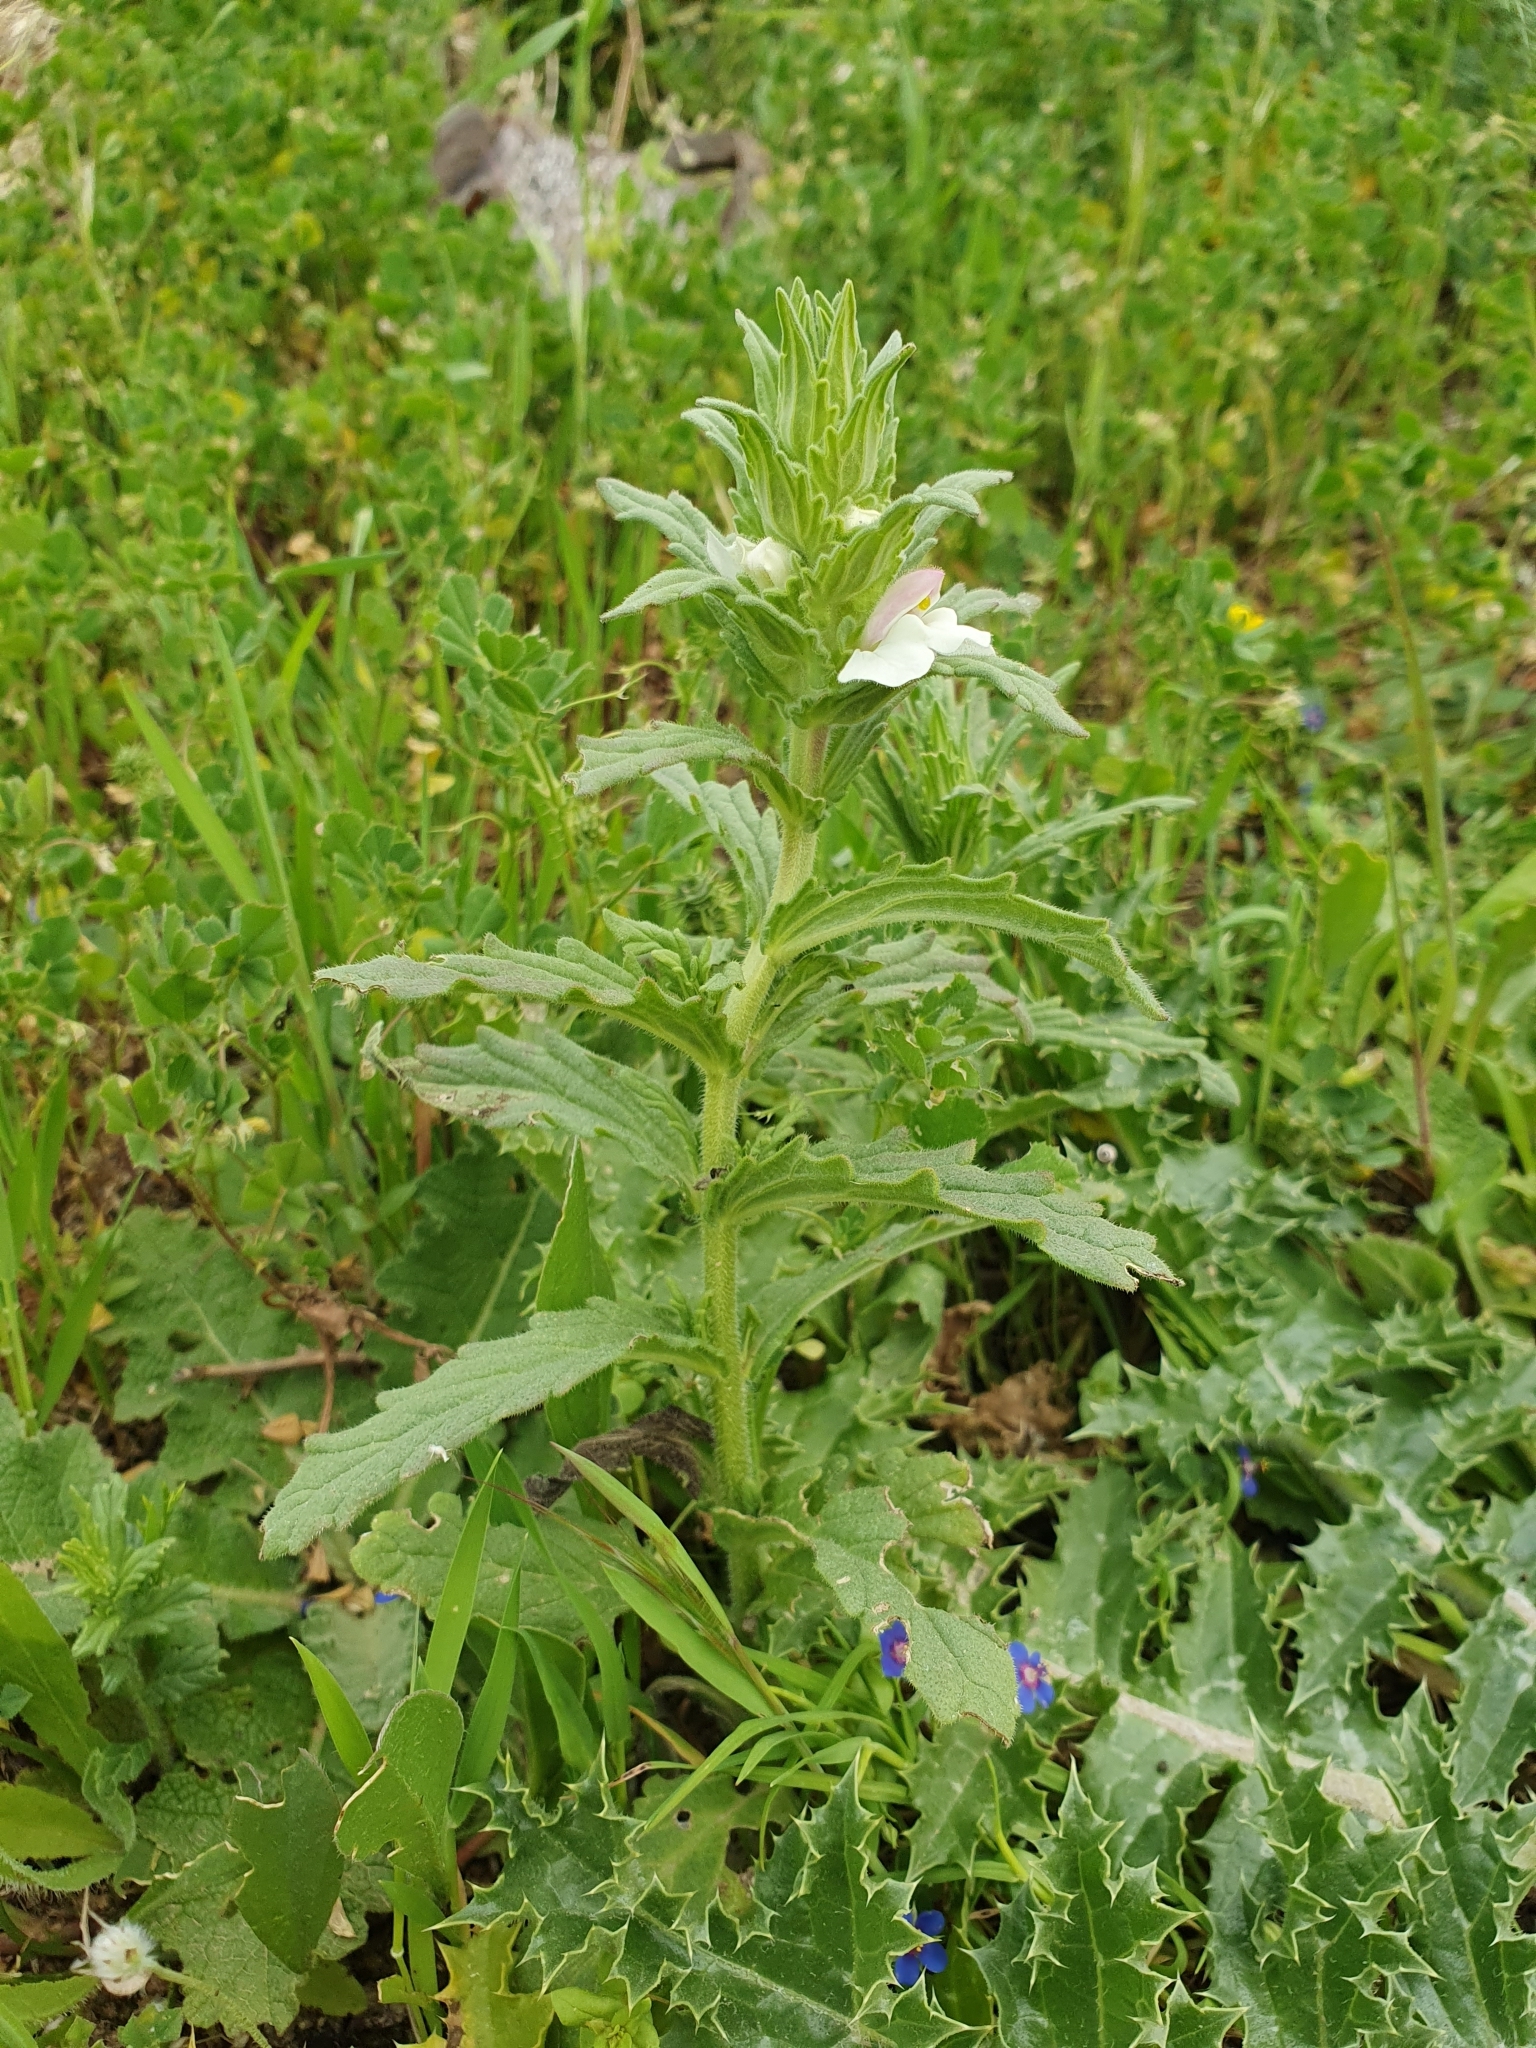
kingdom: Plantae
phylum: Tracheophyta
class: Magnoliopsida
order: Lamiales
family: Orobanchaceae
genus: Bellardia
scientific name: Bellardia trixago
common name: Mediterranean lineseed
